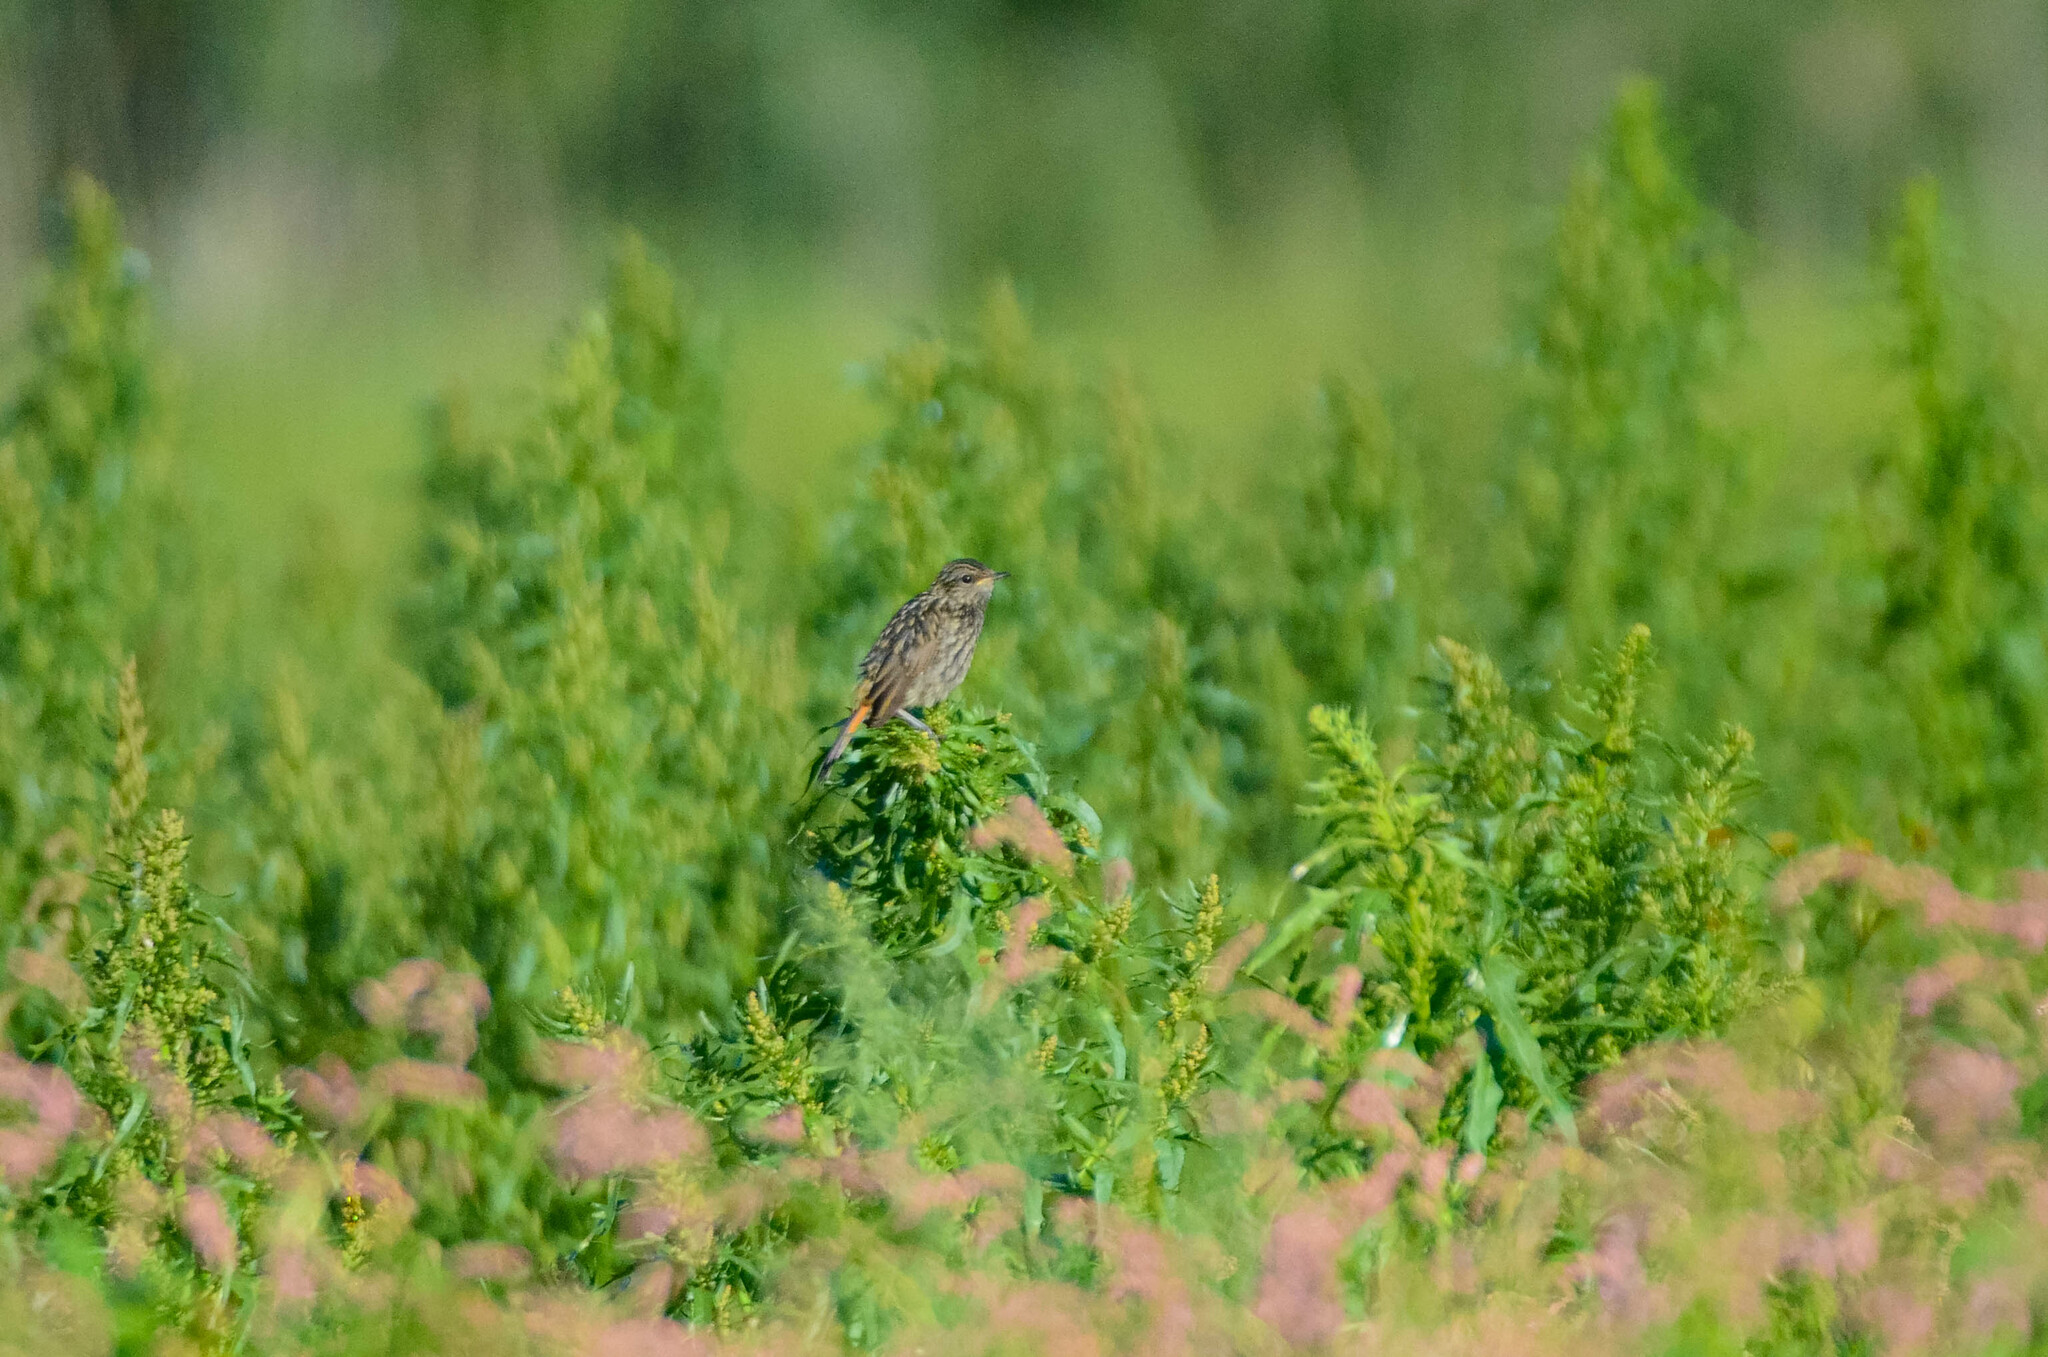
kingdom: Animalia
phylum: Chordata
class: Aves
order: Passeriformes
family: Muscicapidae
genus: Luscinia
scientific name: Luscinia svecica
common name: Bluethroat
